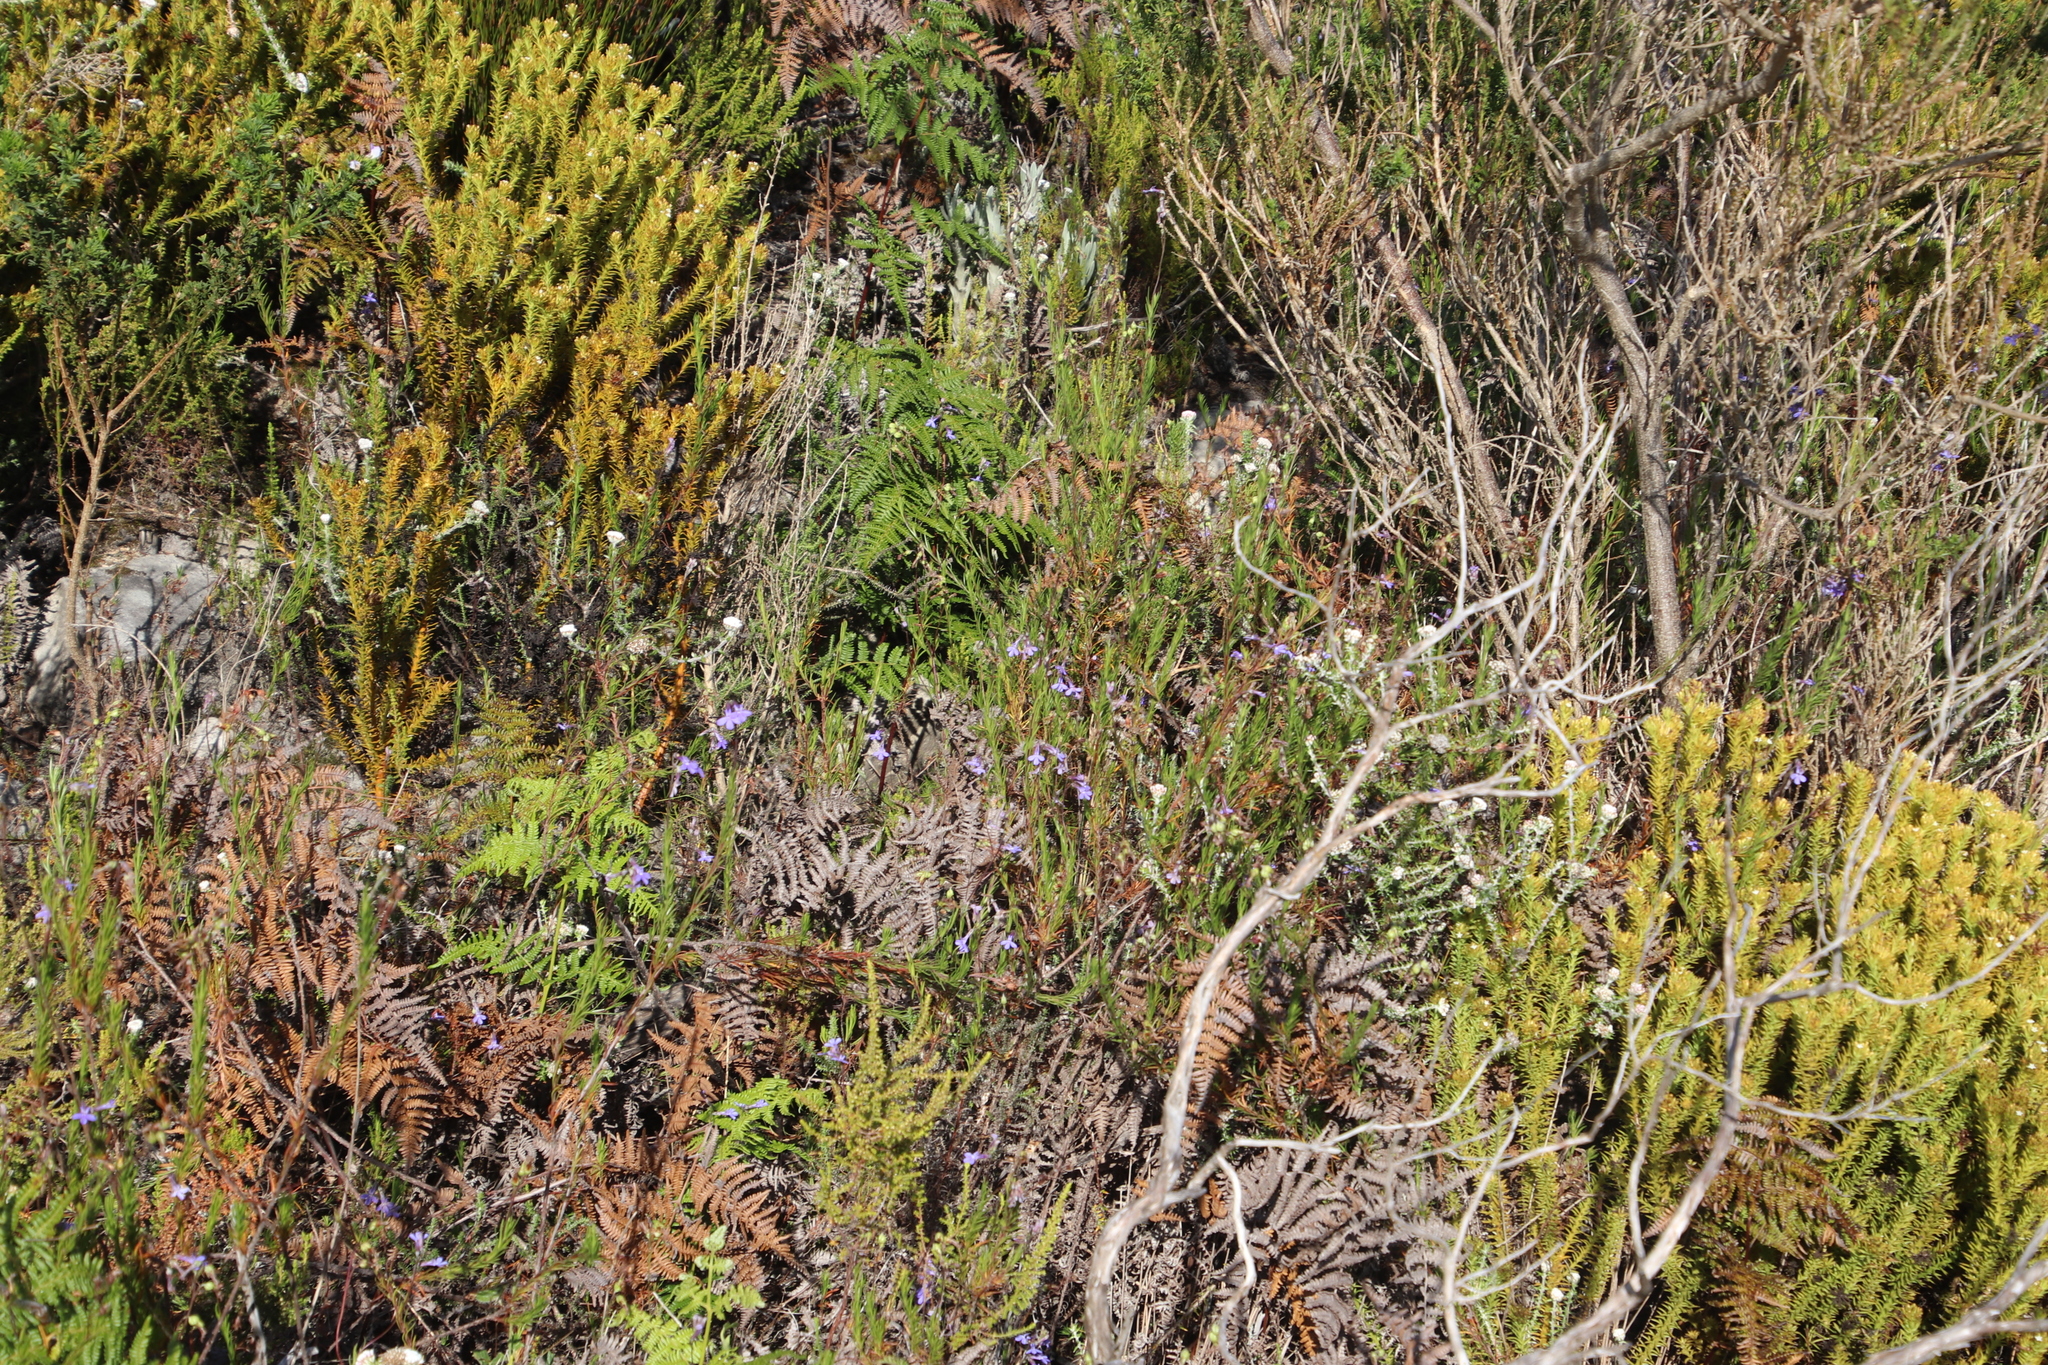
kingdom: Plantae
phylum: Tracheophyta
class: Magnoliopsida
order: Asterales
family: Campanulaceae
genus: Lobelia
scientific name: Lobelia pinifolia
